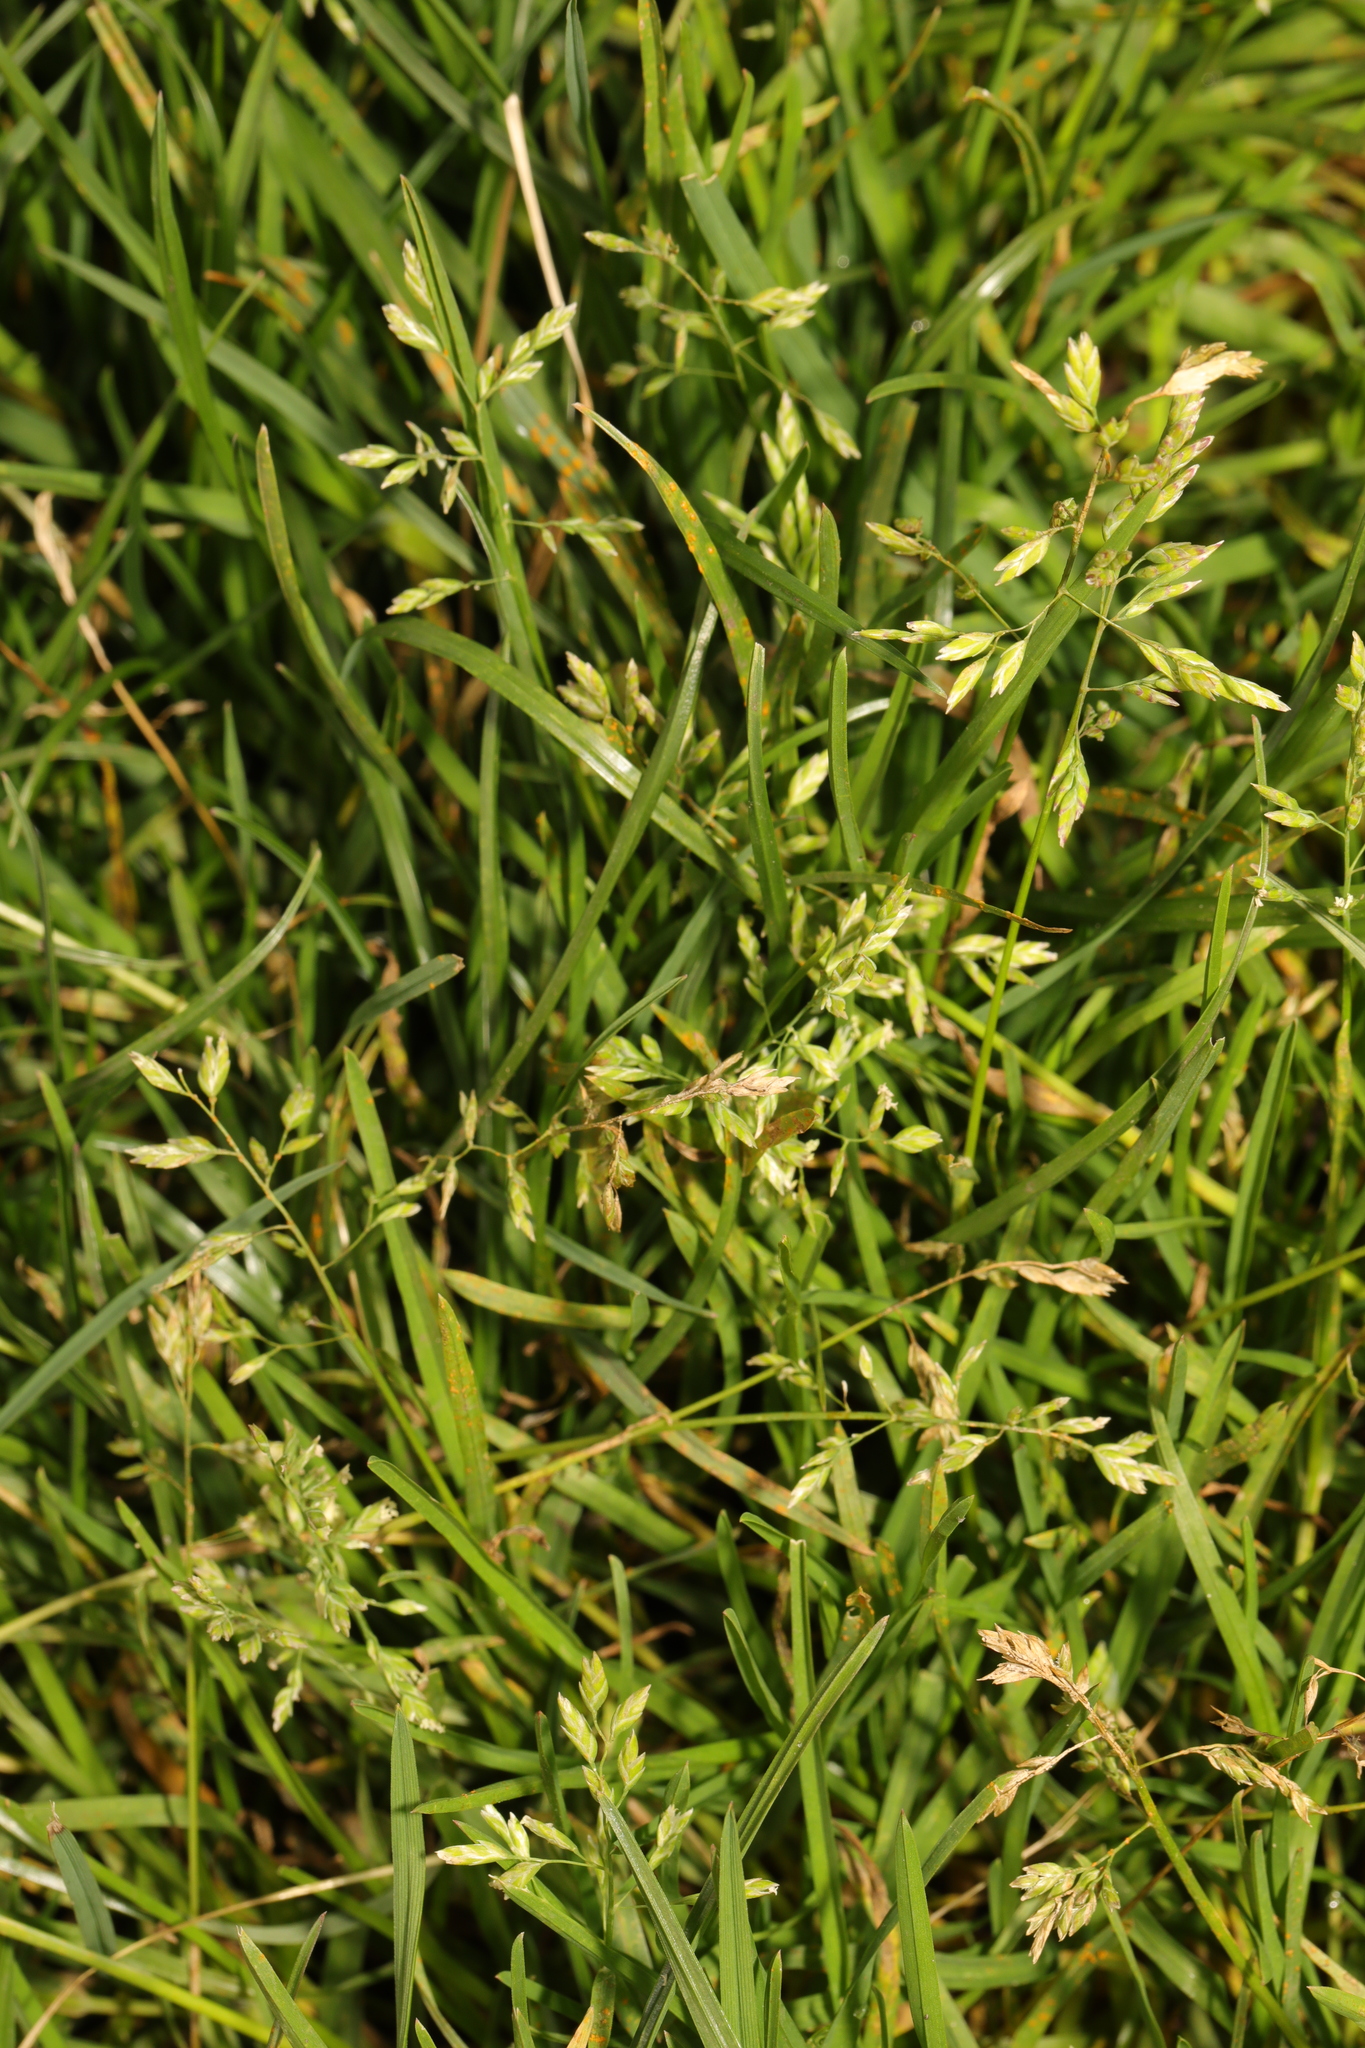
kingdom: Plantae
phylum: Tracheophyta
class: Liliopsida
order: Poales
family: Poaceae
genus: Poa
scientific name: Poa annua
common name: Annual bluegrass
